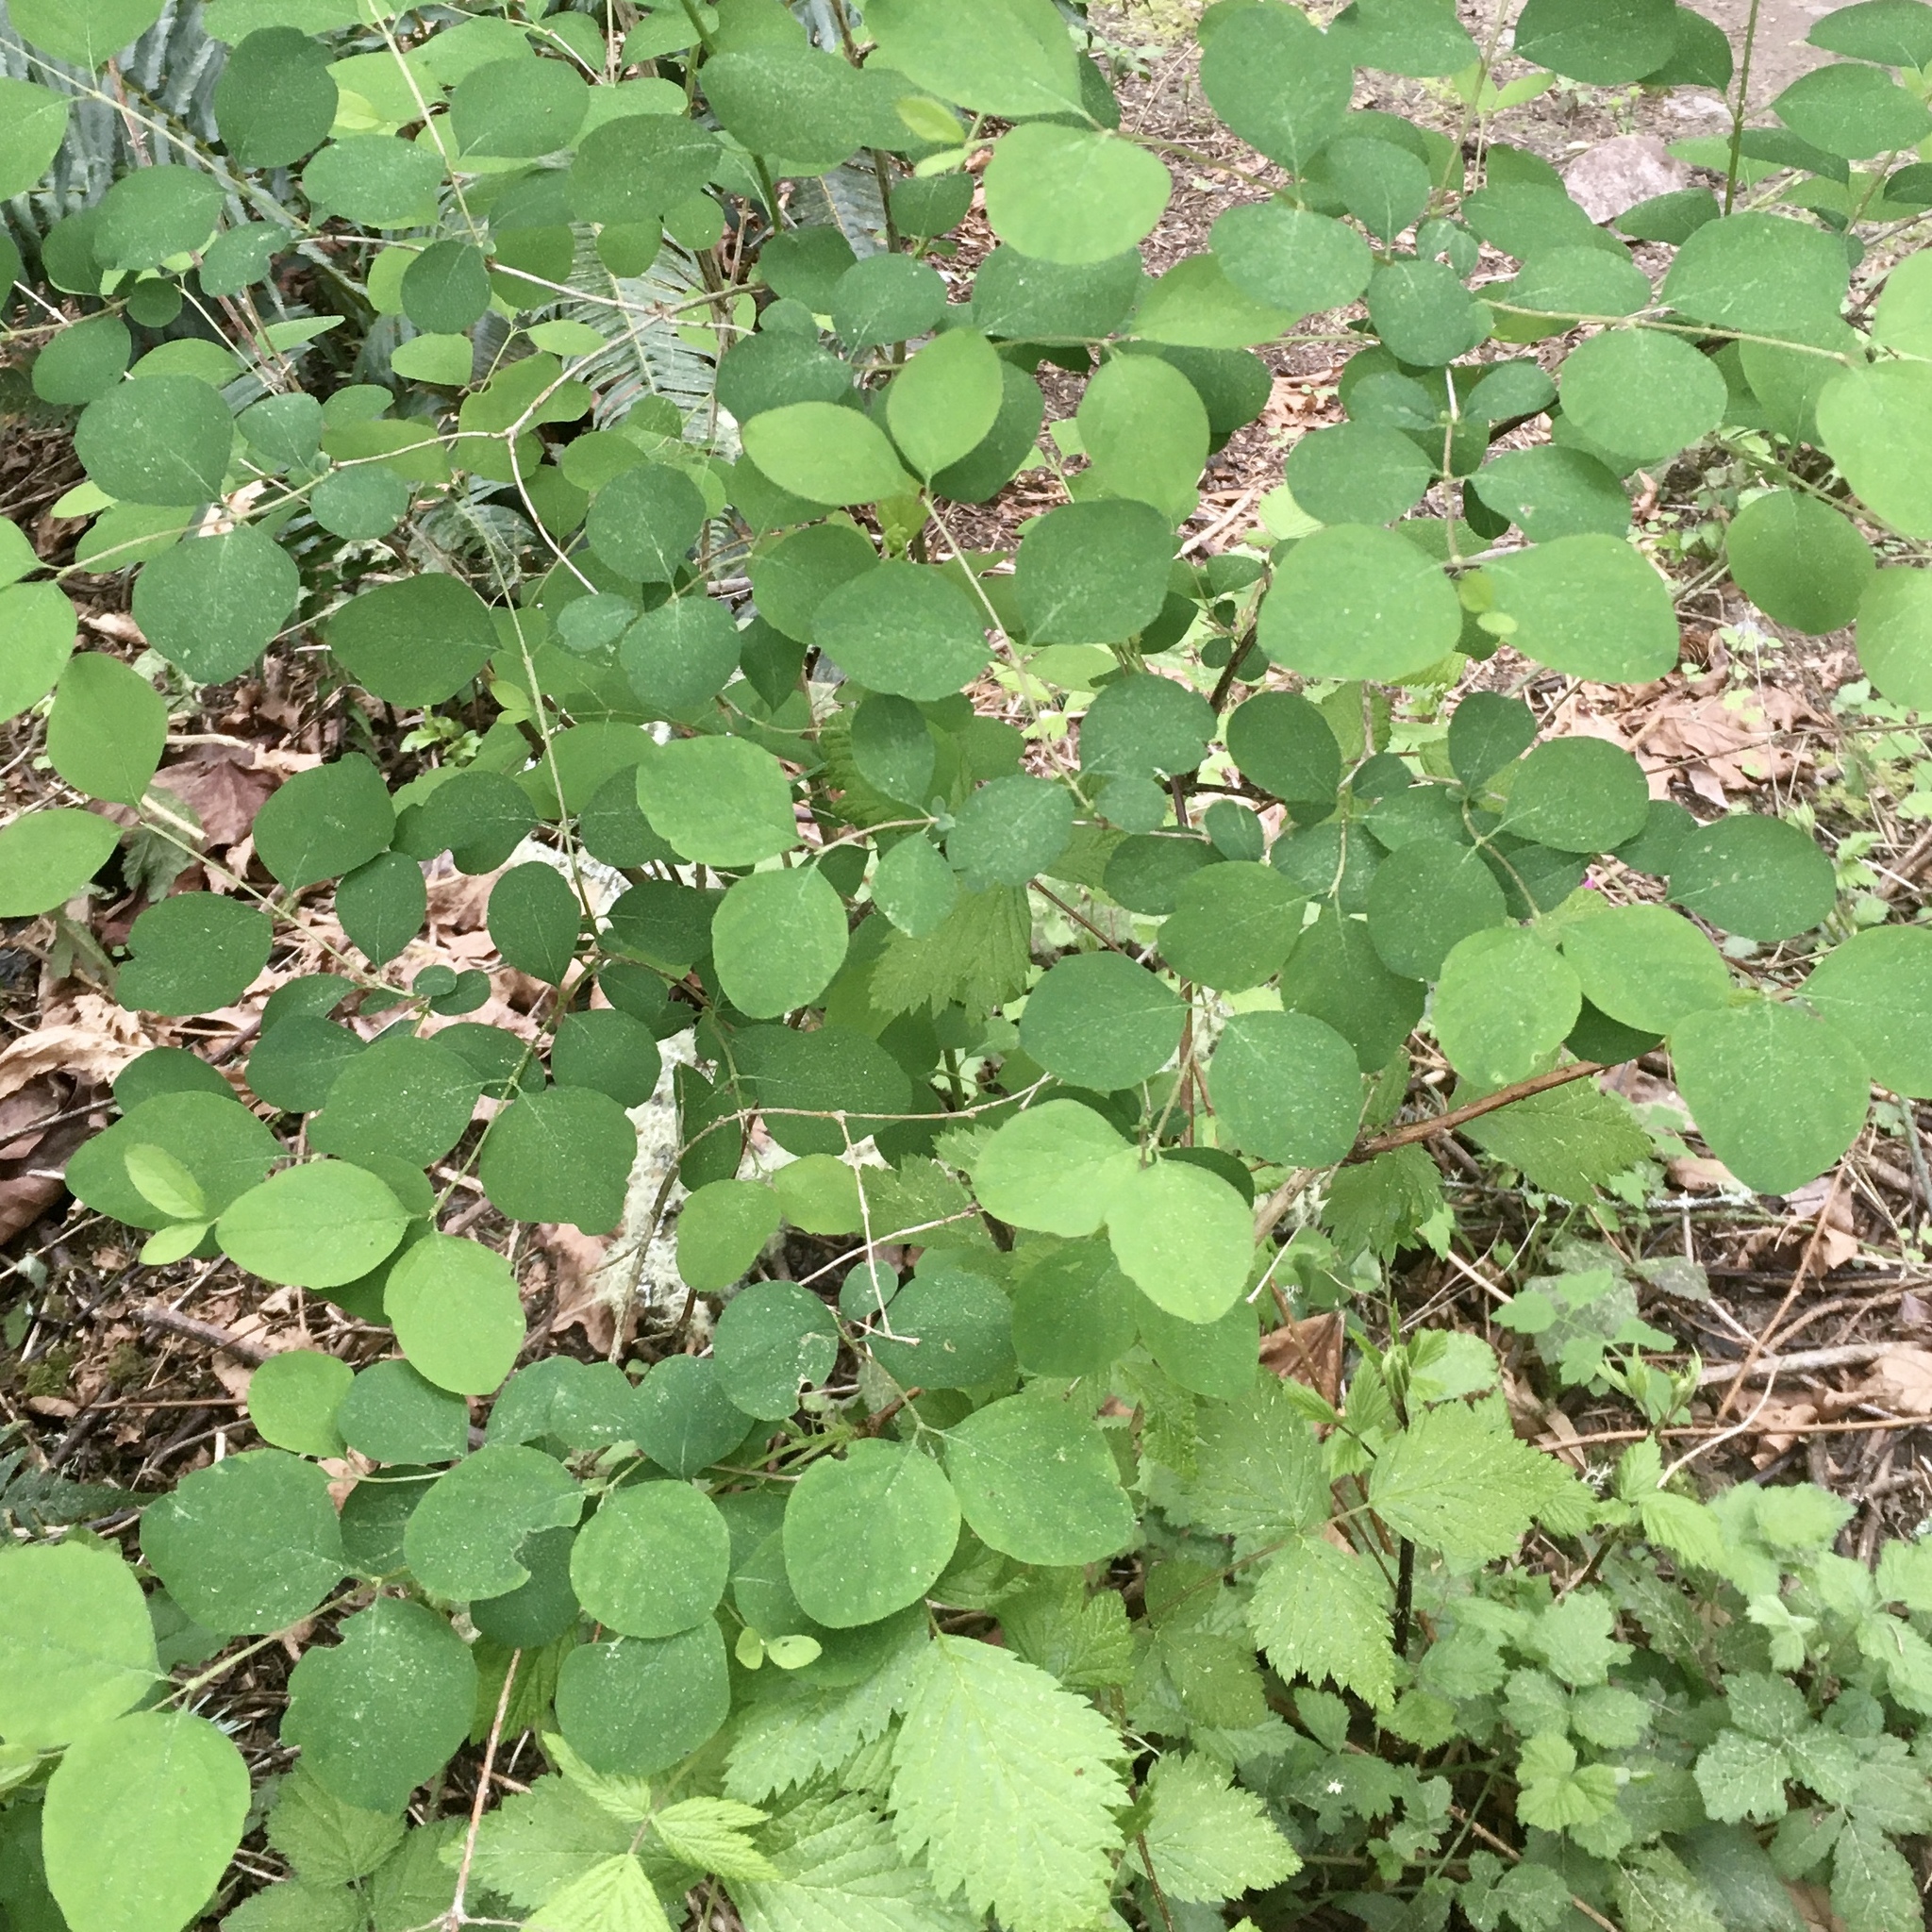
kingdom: Plantae
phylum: Tracheophyta
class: Magnoliopsida
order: Dipsacales
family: Caprifoliaceae
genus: Symphoricarpos
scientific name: Symphoricarpos albus
